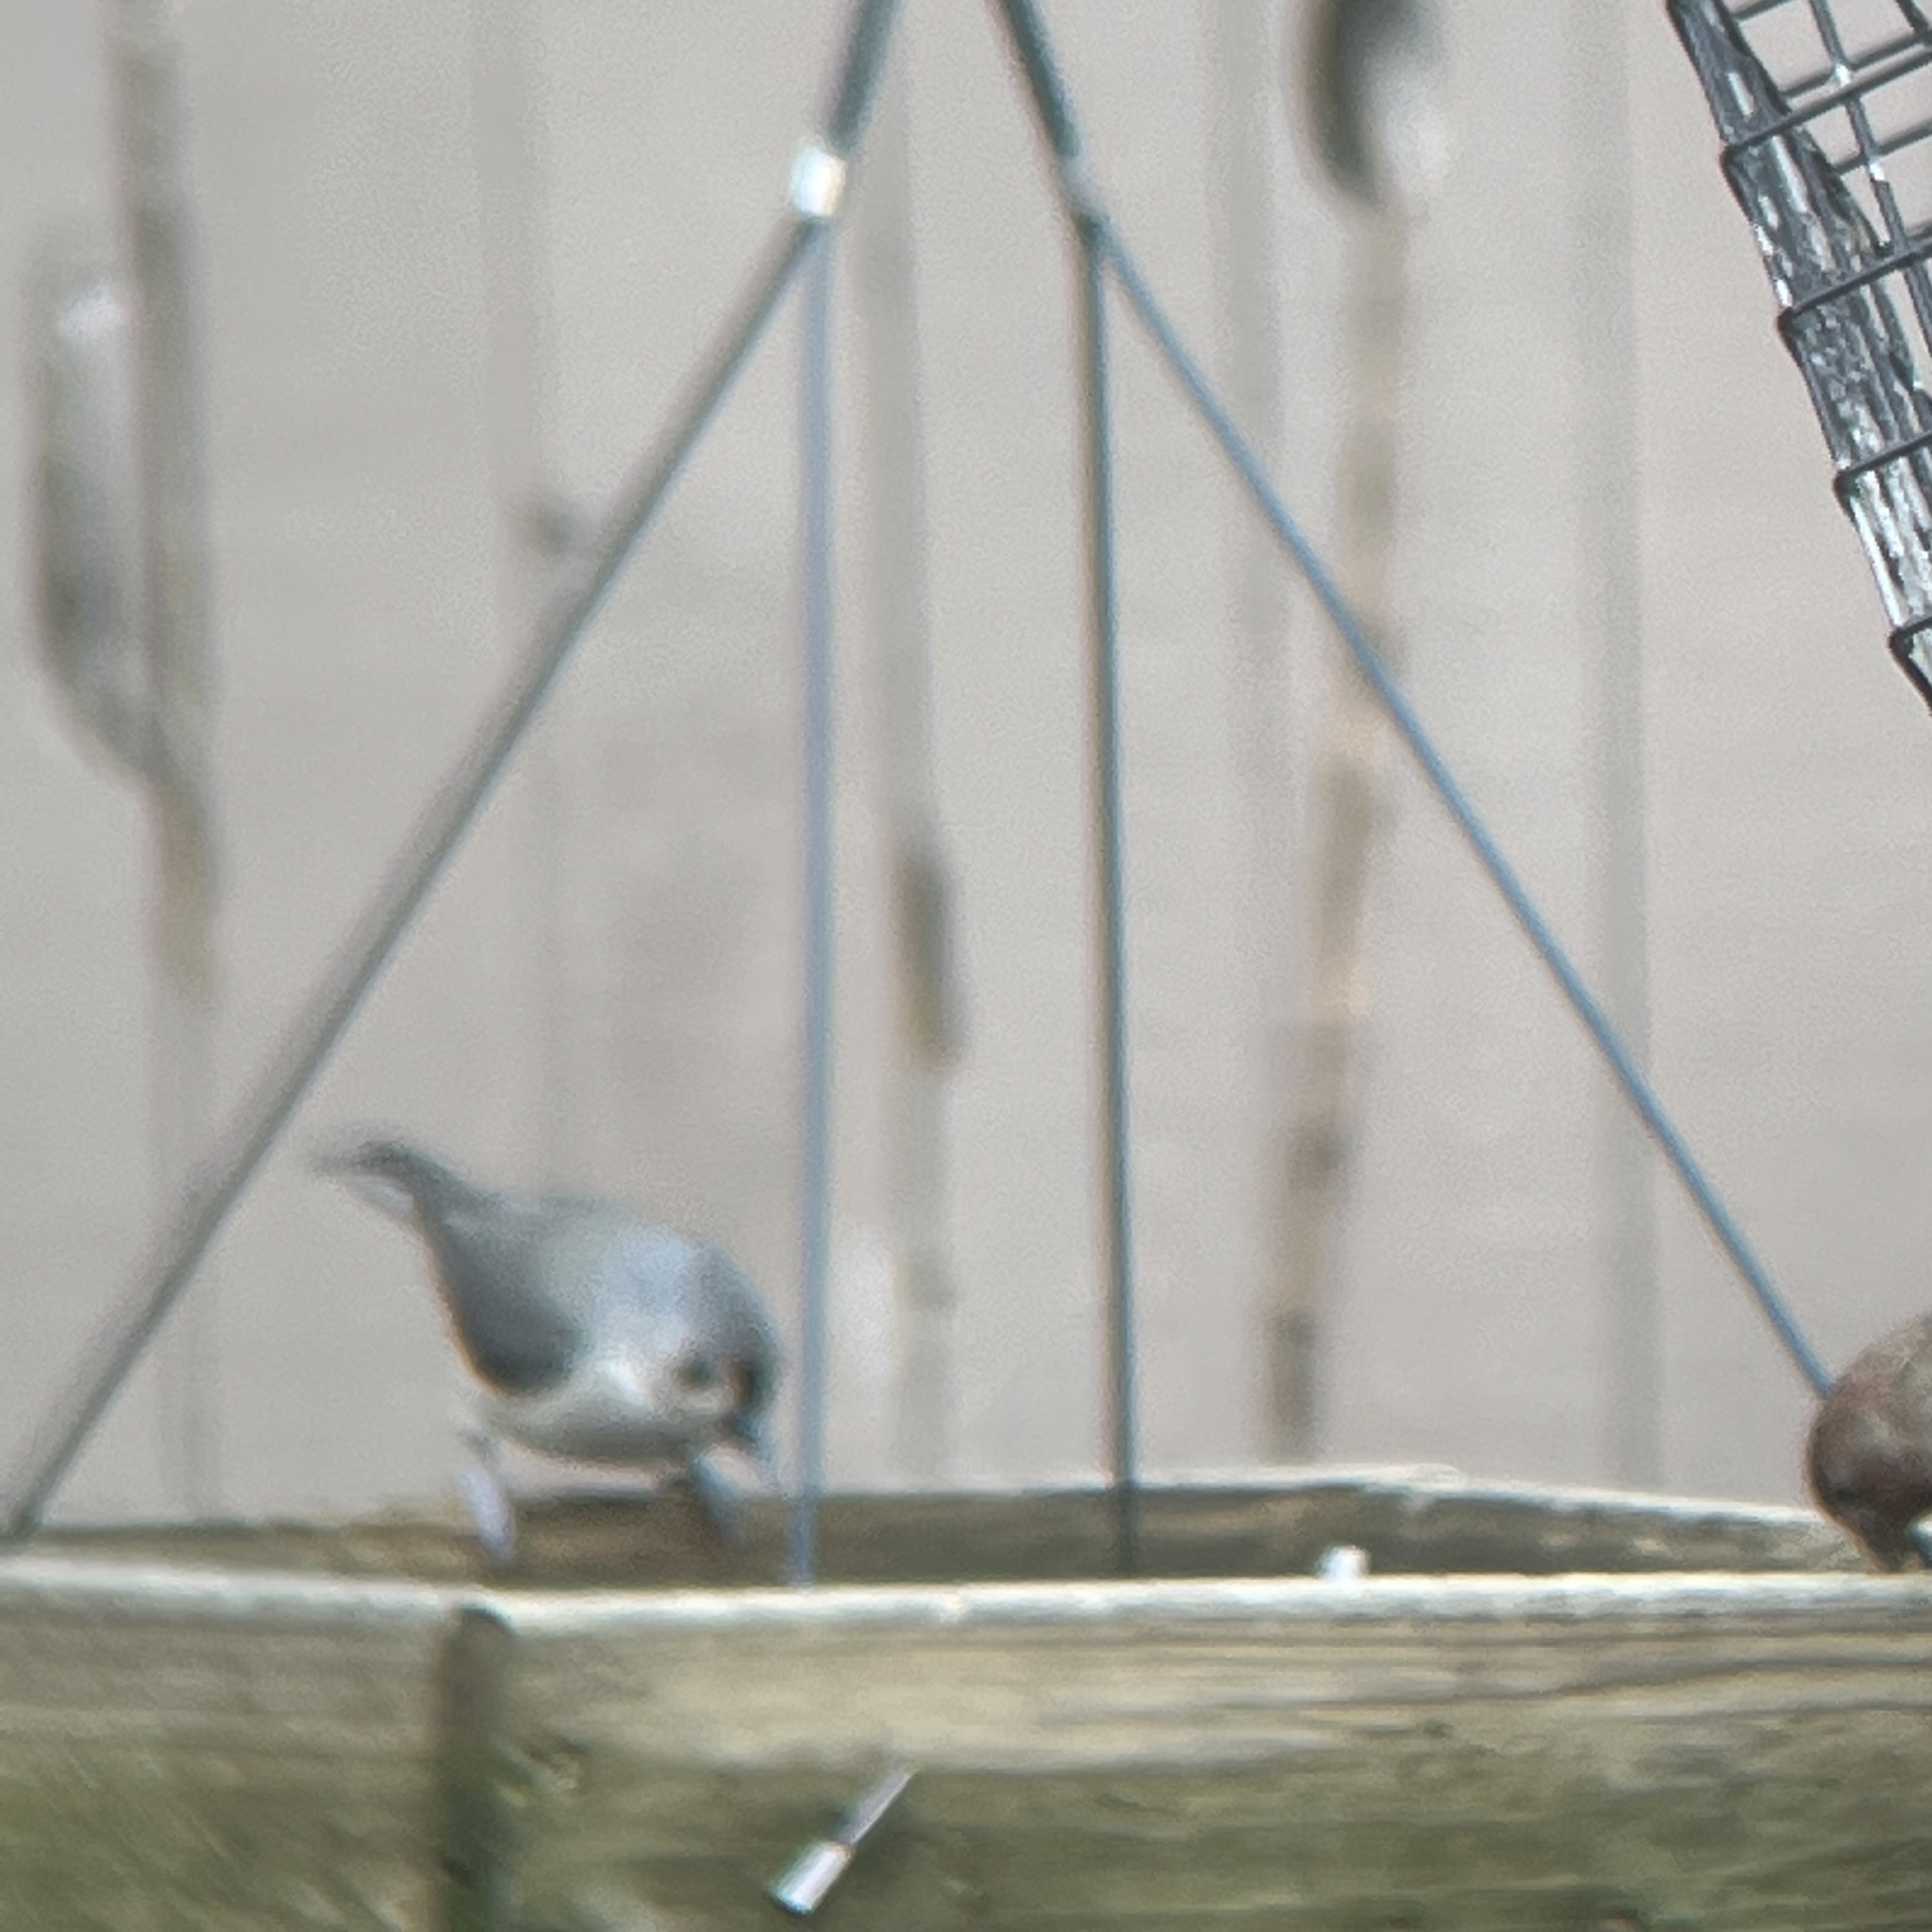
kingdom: Animalia
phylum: Chordata
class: Aves
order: Passeriformes
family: Paridae
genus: Baeolophus
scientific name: Baeolophus bicolor
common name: Tufted titmouse
